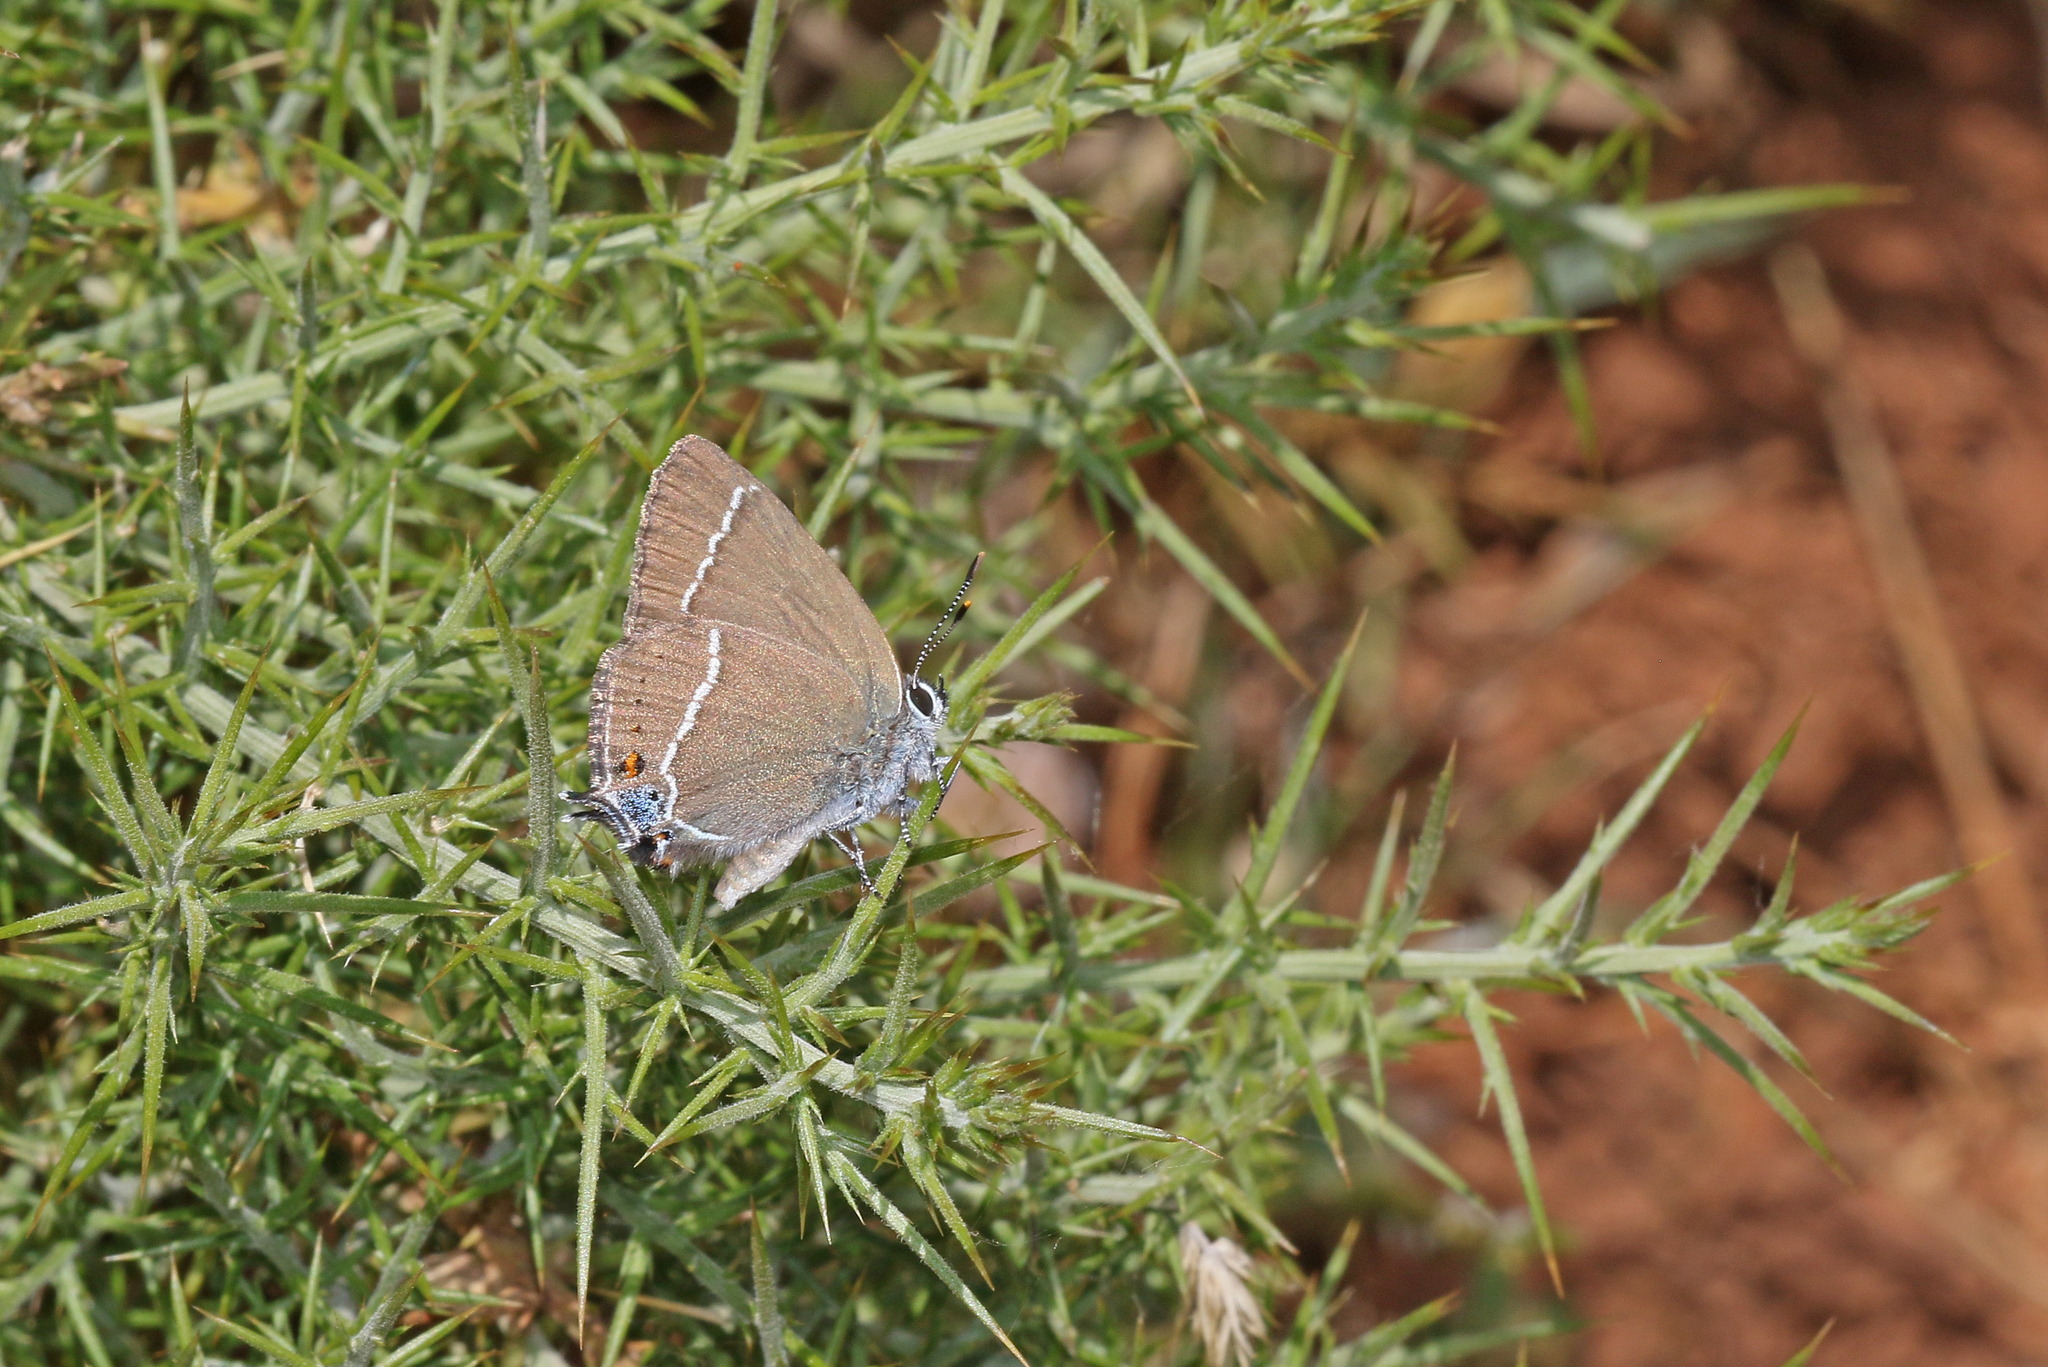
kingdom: Animalia
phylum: Arthropoda
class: Insecta
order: Lepidoptera
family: Lycaenidae
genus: Tuttiola
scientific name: Tuttiola spini
